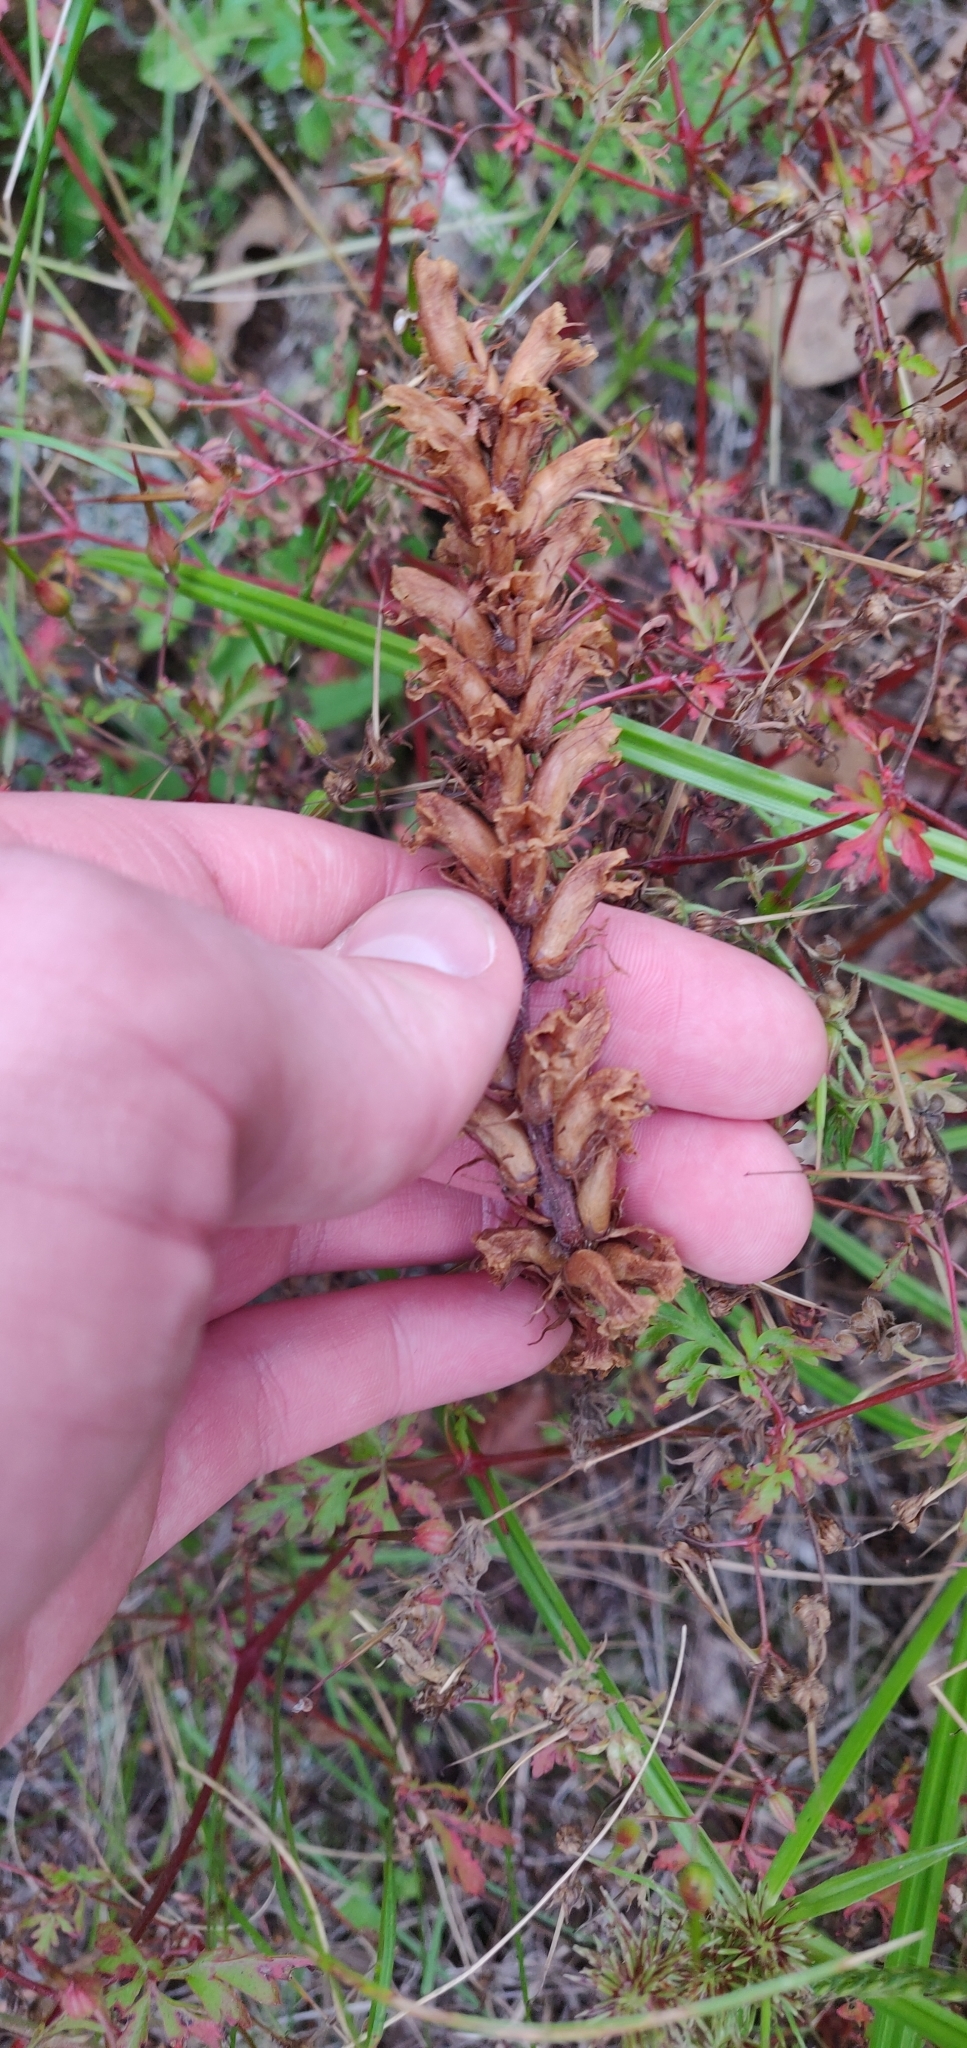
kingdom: Plantae
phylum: Tracheophyta
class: Magnoliopsida
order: Lamiales
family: Orobanchaceae
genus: Orobanche
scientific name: Orobanche minor
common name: Common broomrape
